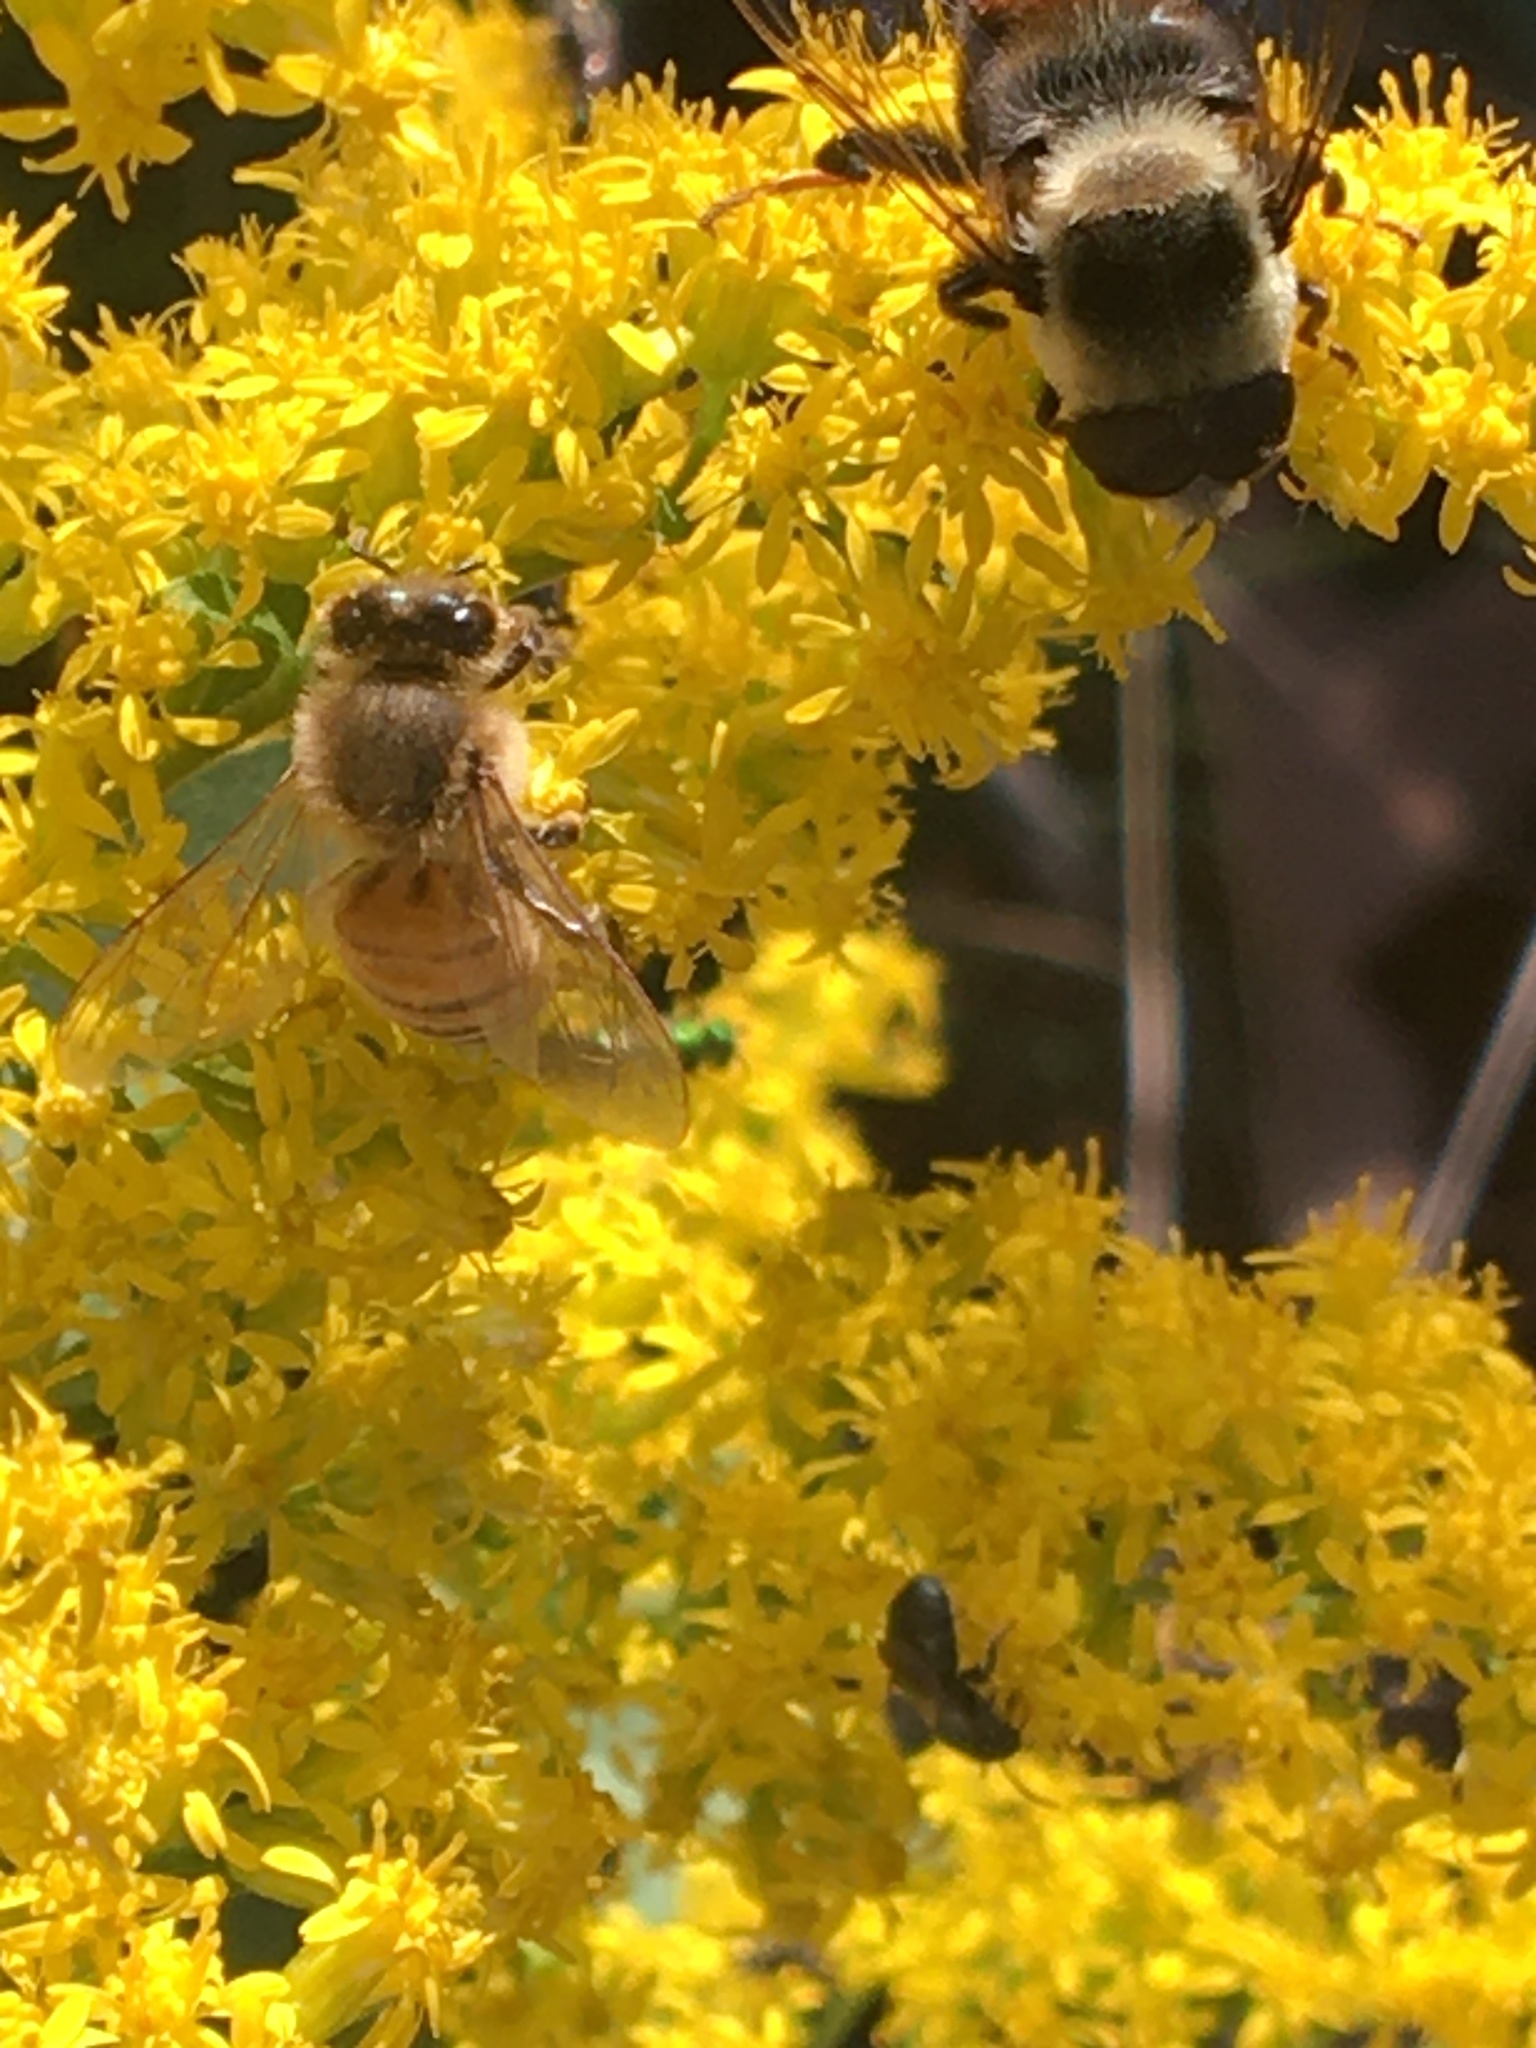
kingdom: Animalia
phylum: Arthropoda
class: Insecta
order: Hymenoptera
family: Apidae
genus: Apis
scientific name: Apis mellifera
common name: Honey bee
